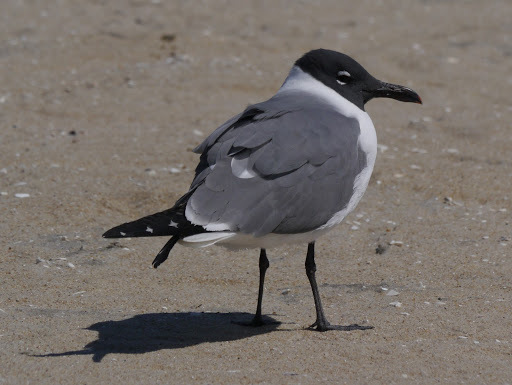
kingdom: Animalia
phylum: Chordata
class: Aves
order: Charadriiformes
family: Laridae
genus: Leucophaeus
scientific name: Leucophaeus atricilla
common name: Laughing gull
